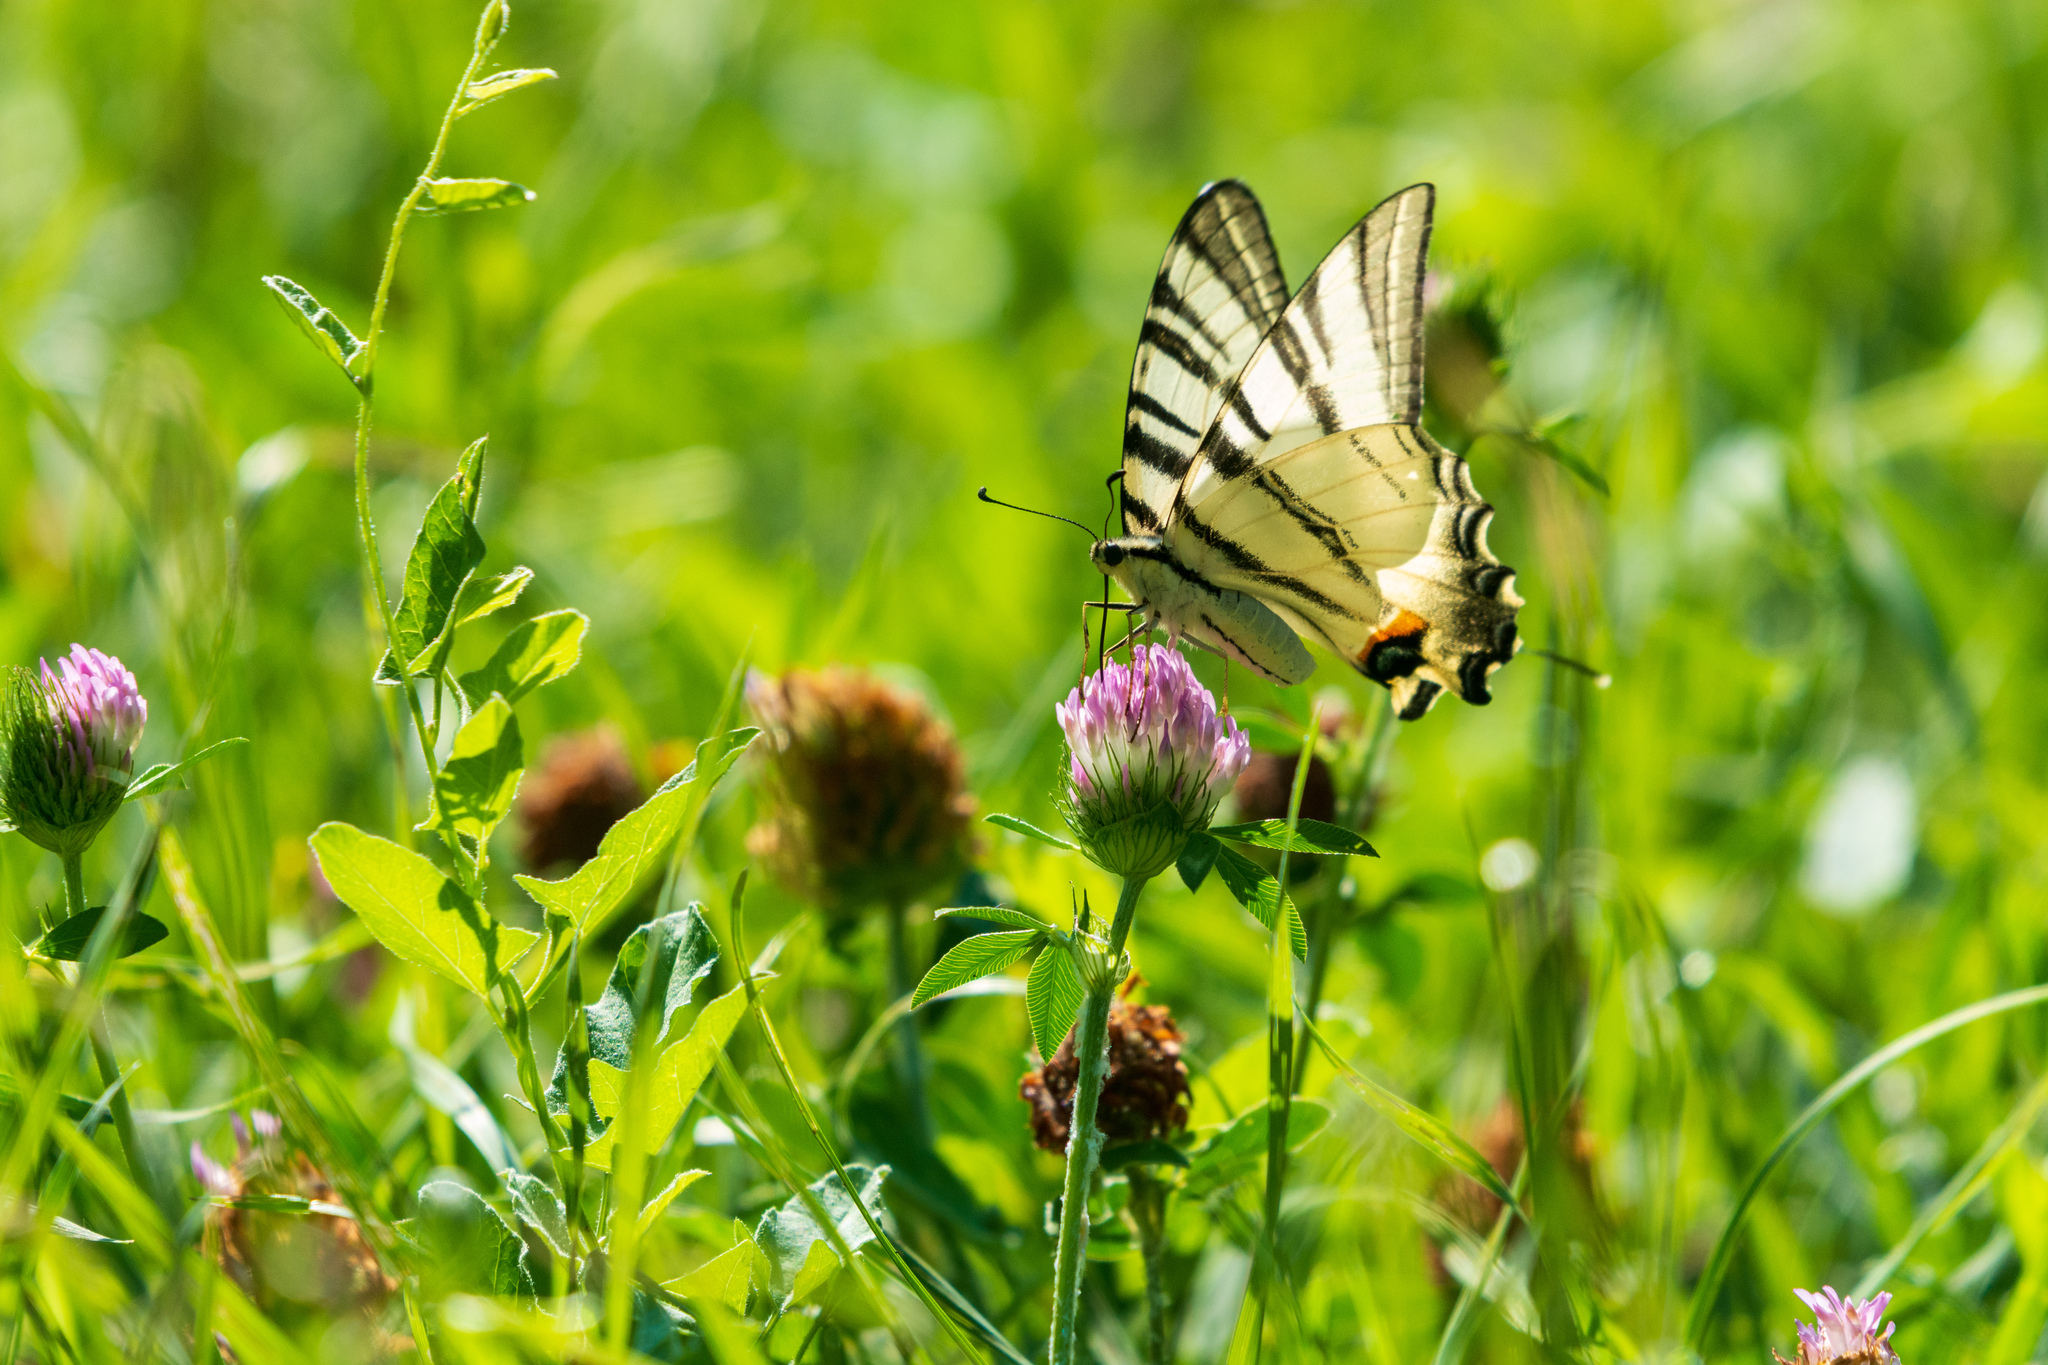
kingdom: Animalia
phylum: Arthropoda
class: Insecta
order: Lepidoptera
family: Papilionidae
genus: Iphiclides
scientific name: Iphiclides podalirius
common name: Scarce swallowtail
